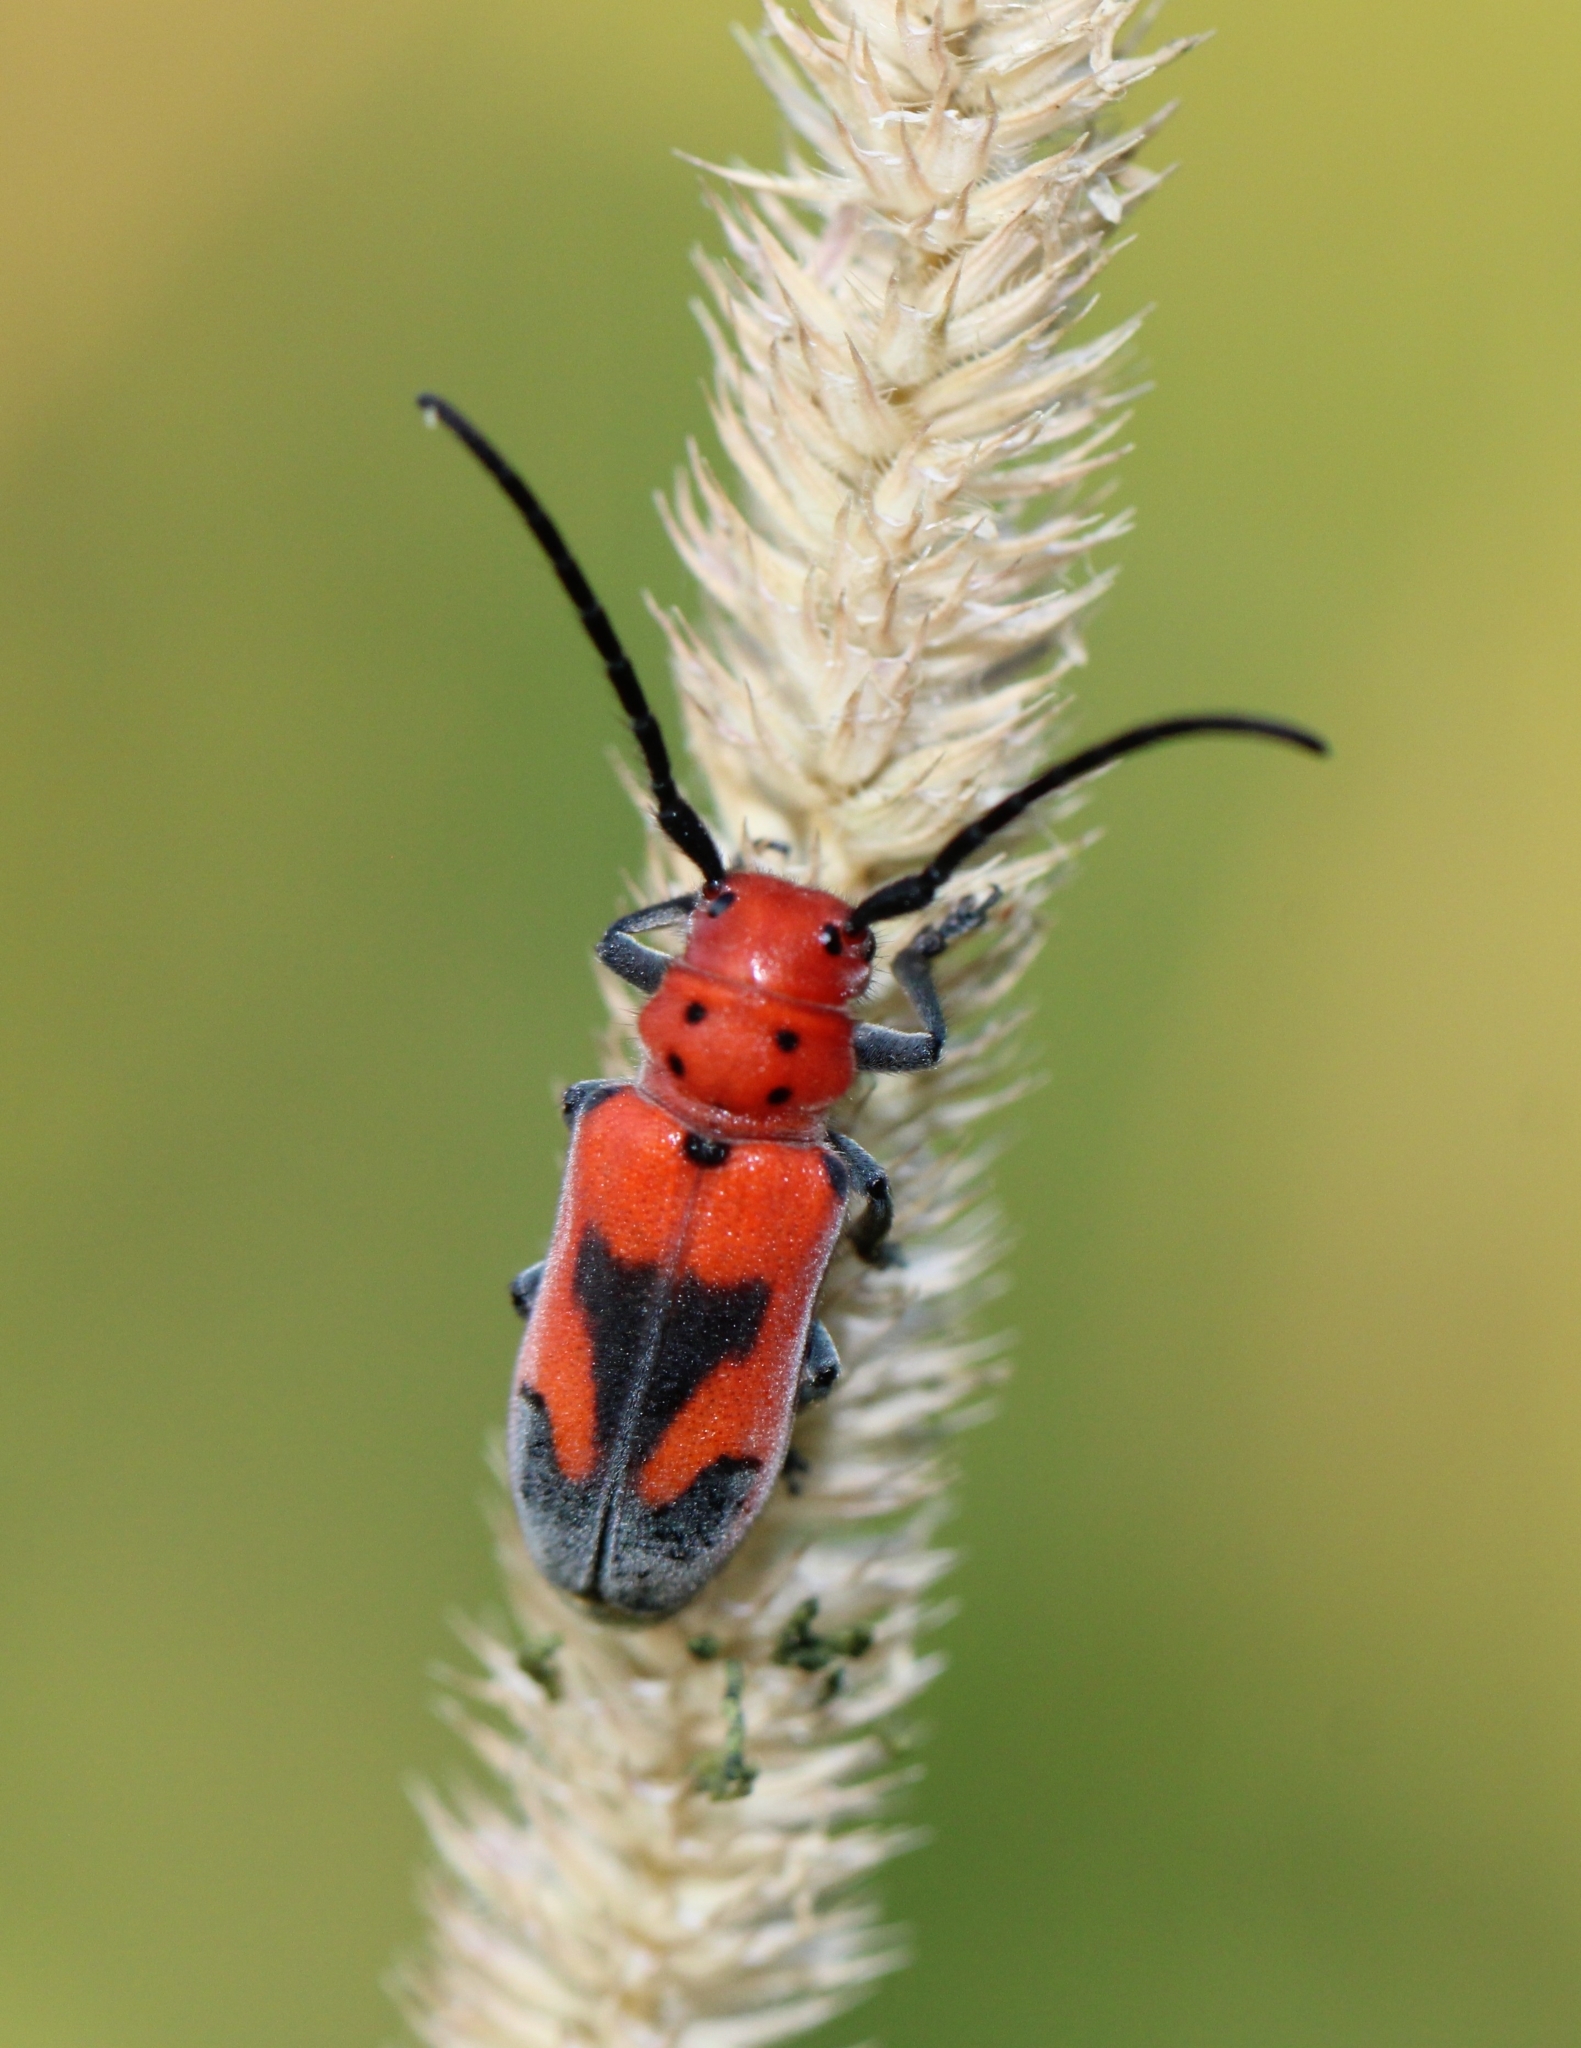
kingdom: Animalia
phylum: Arthropoda
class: Insecta
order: Coleoptera
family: Cerambycidae
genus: Tetraopes
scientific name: Tetraopes melanurus
